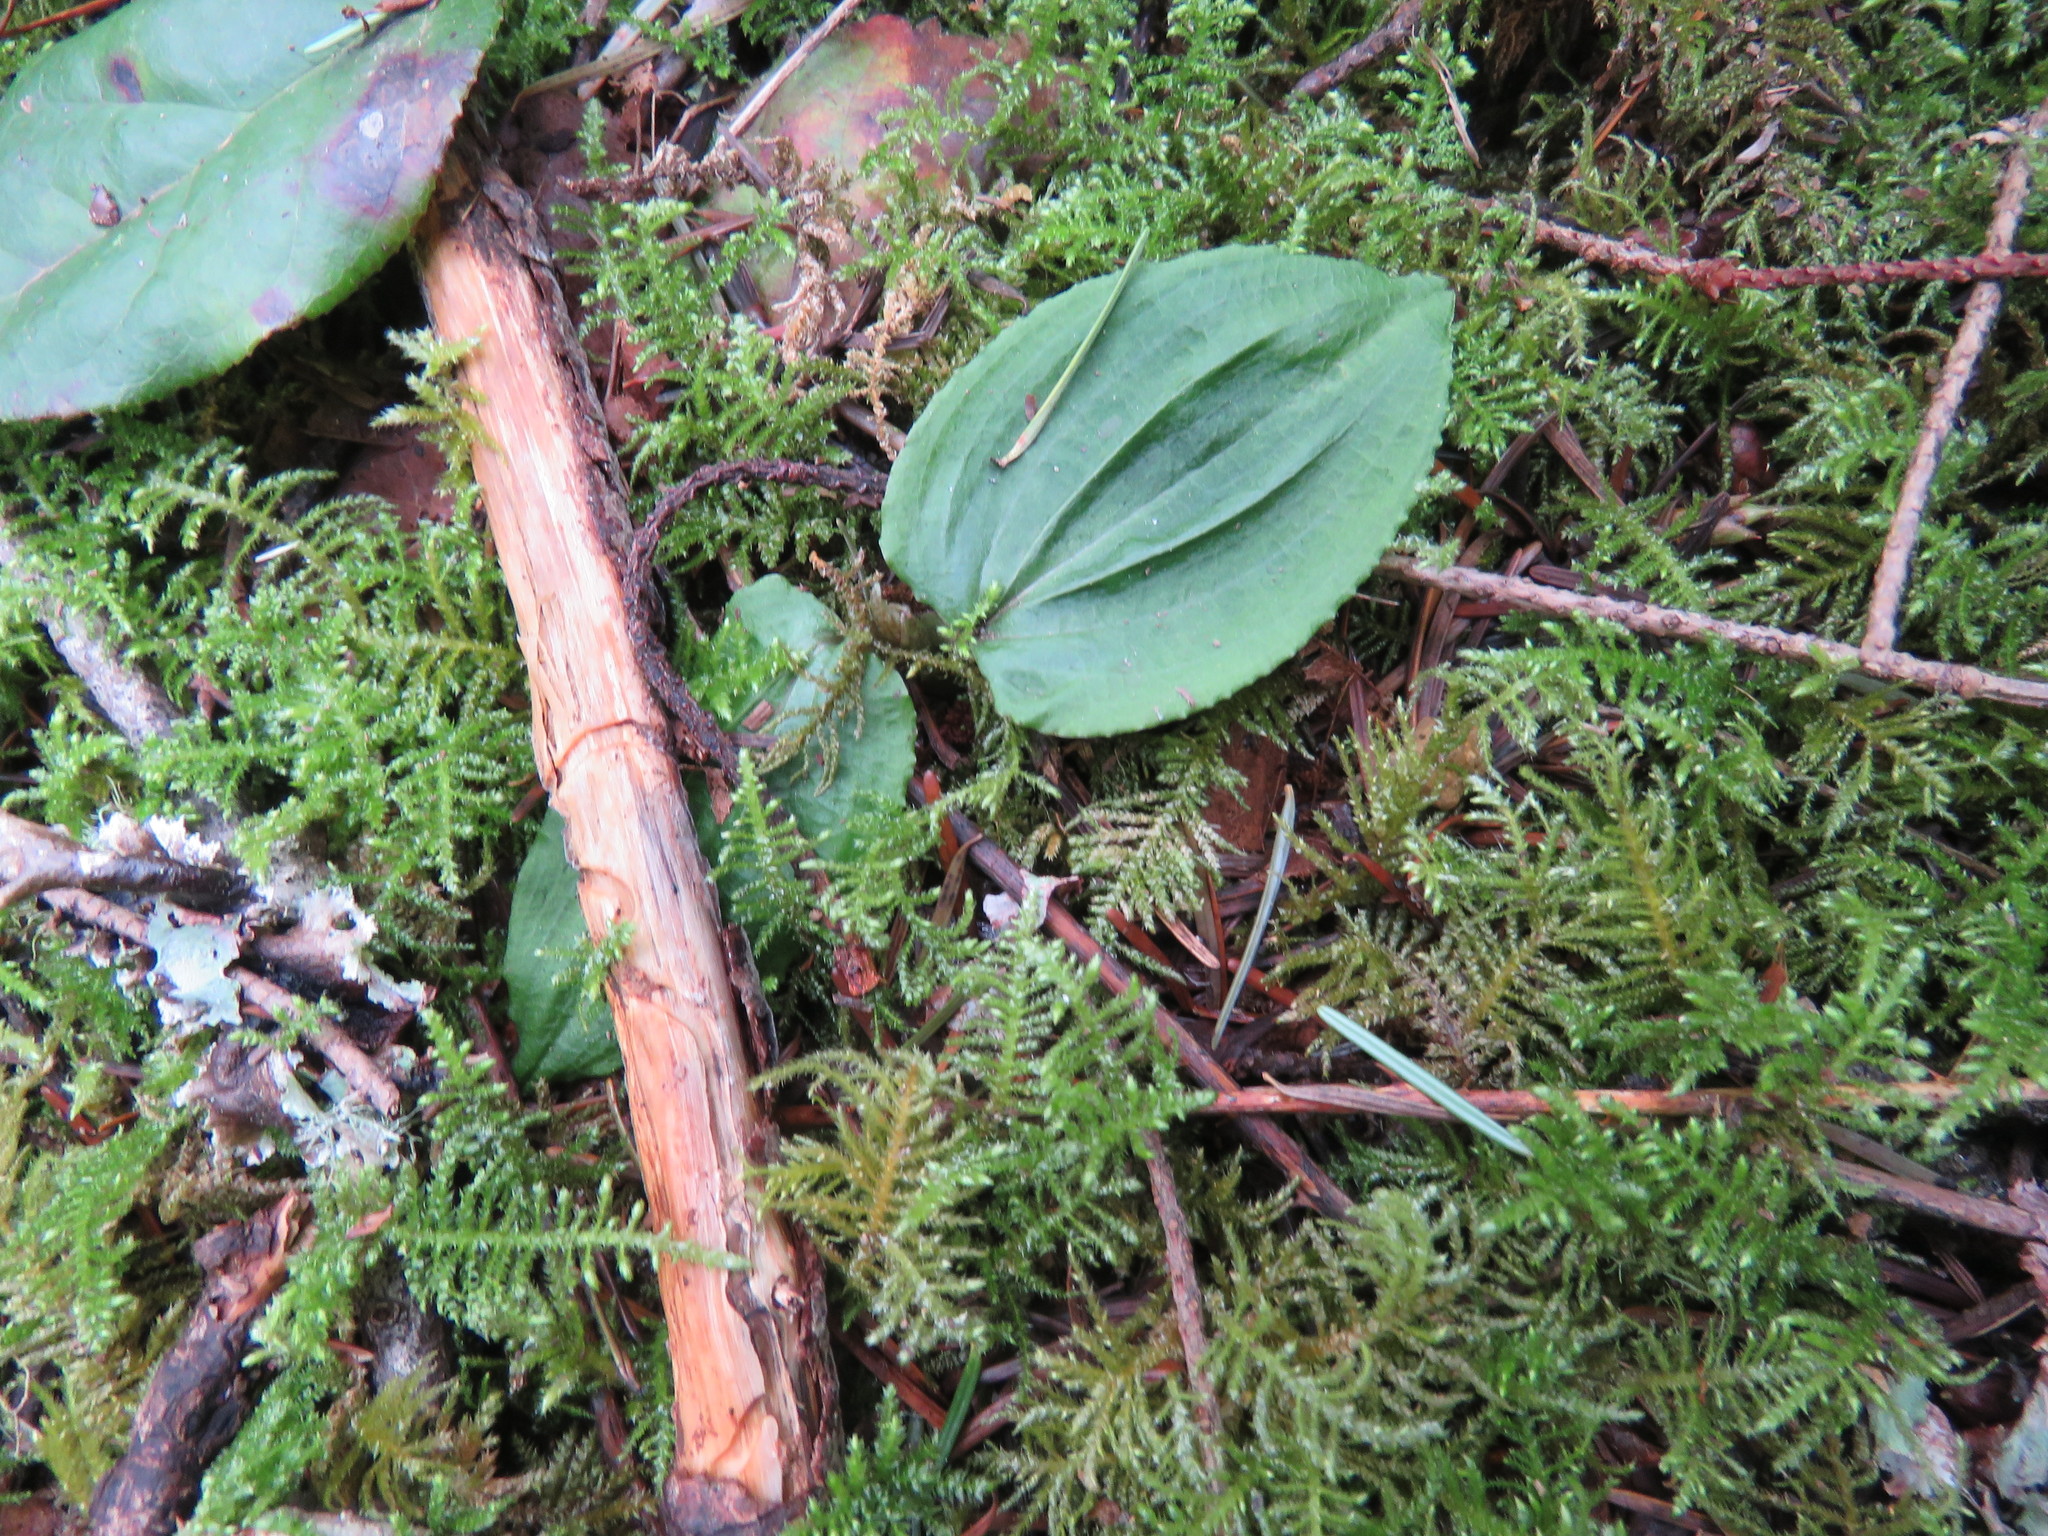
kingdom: Plantae
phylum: Tracheophyta
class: Liliopsida
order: Asparagales
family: Orchidaceae
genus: Calypso
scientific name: Calypso bulbosa
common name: Calypso
